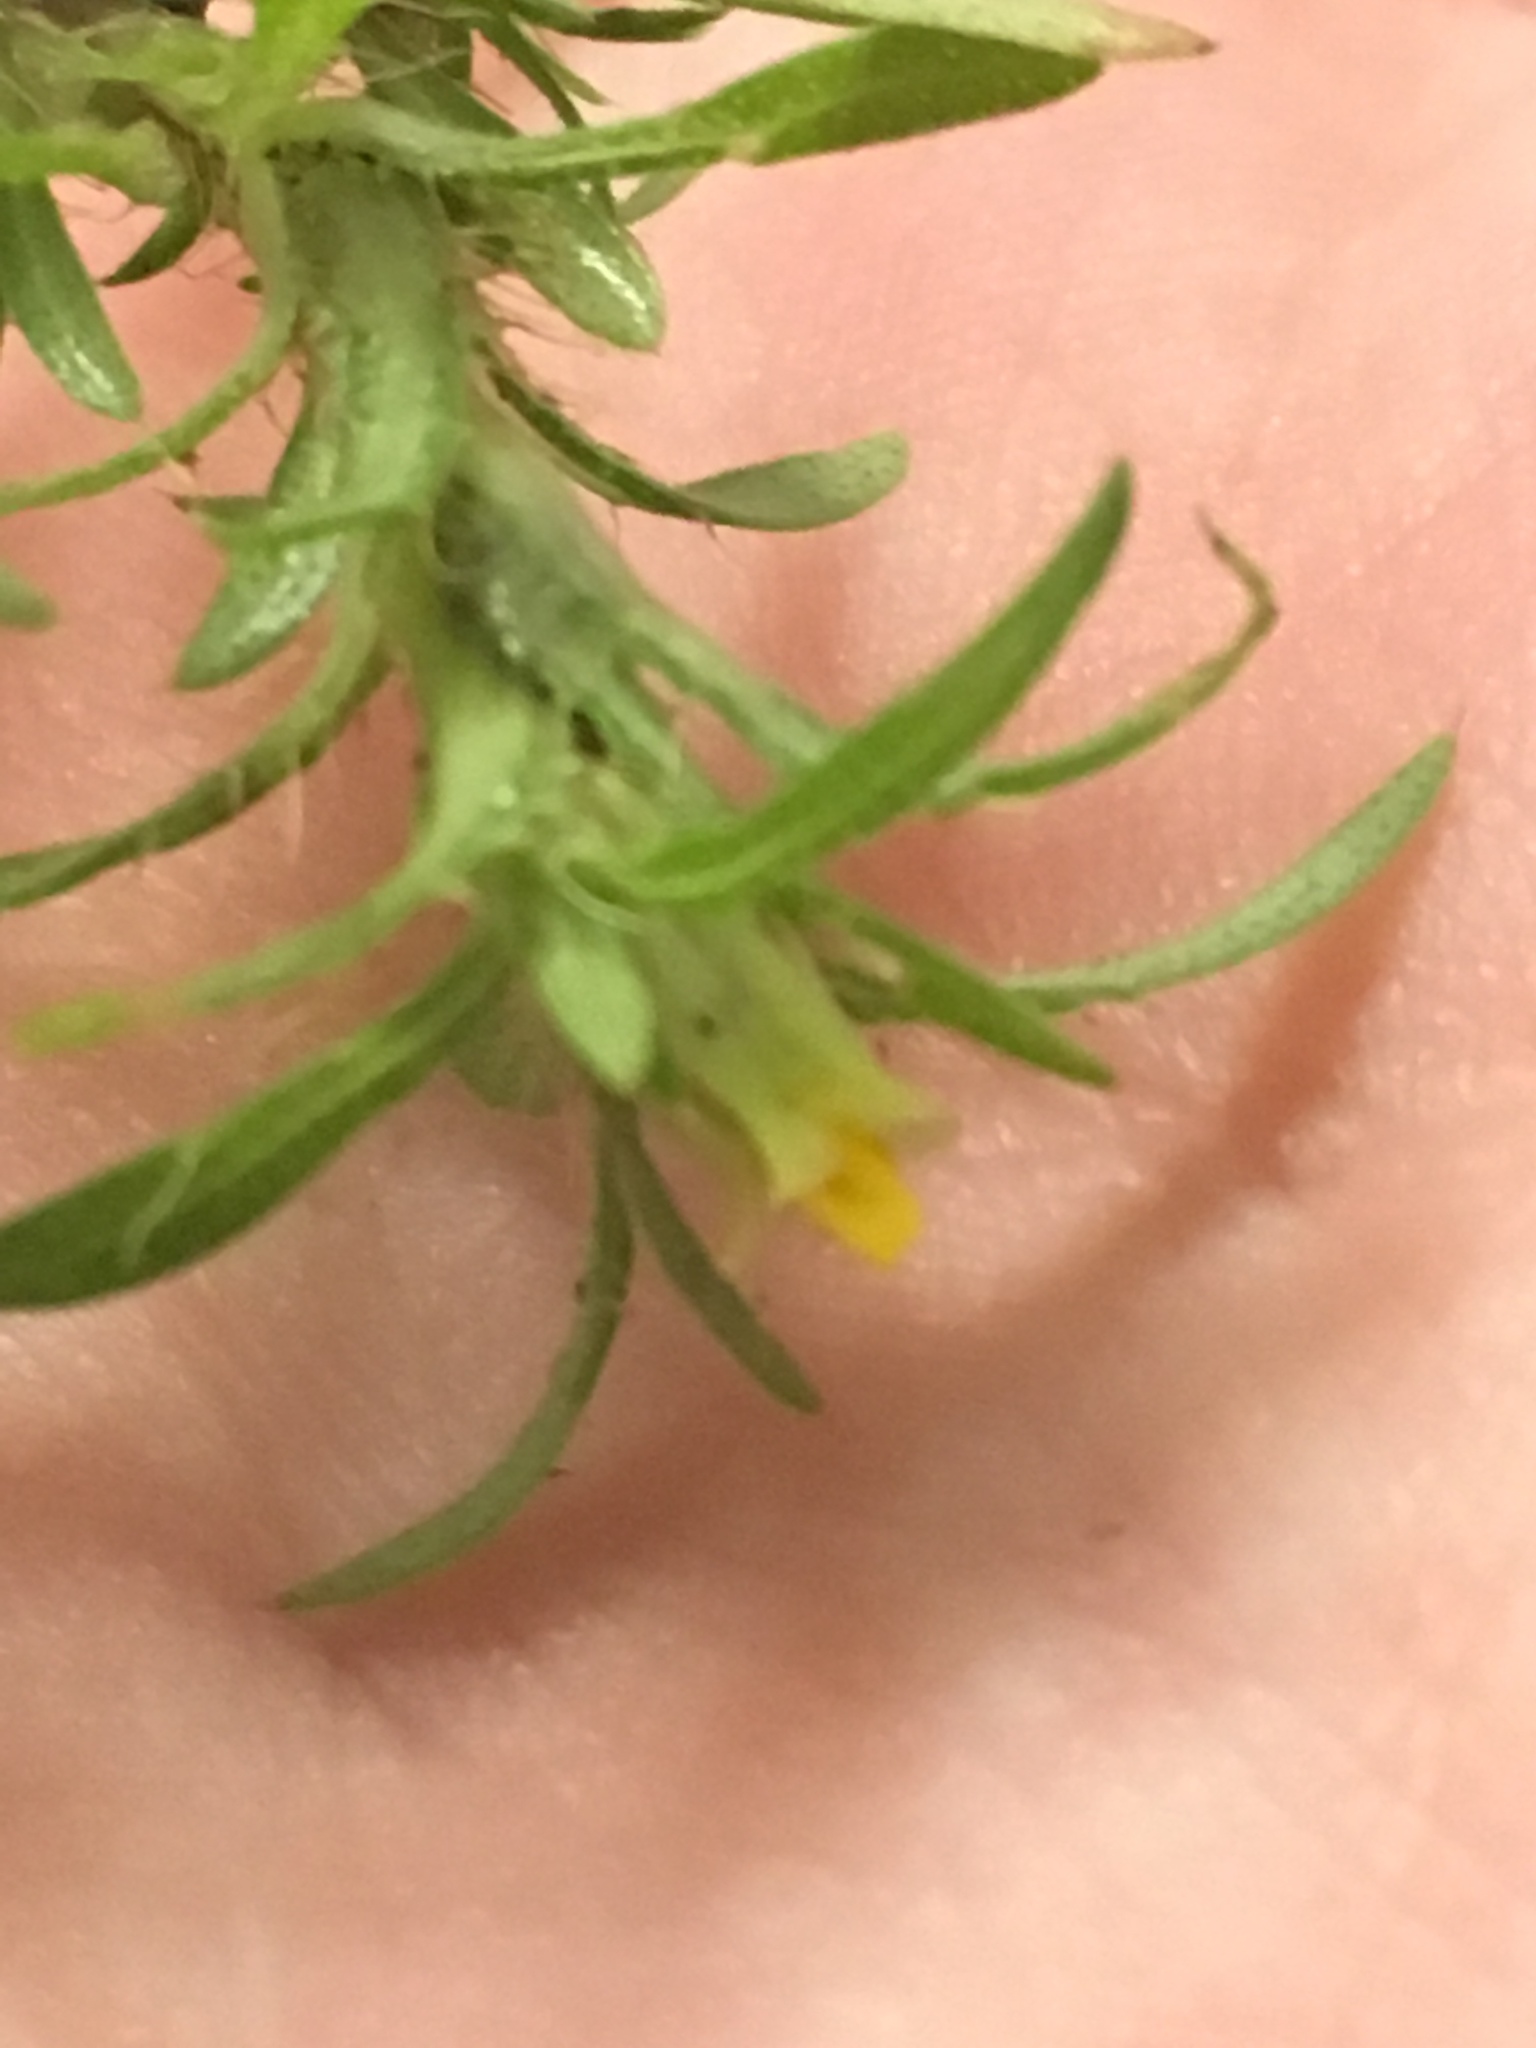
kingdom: Plantae
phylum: Tracheophyta
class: Magnoliopsida
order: Asterales
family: Asteraceae
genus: Pectis
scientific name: Pectis prostrata
